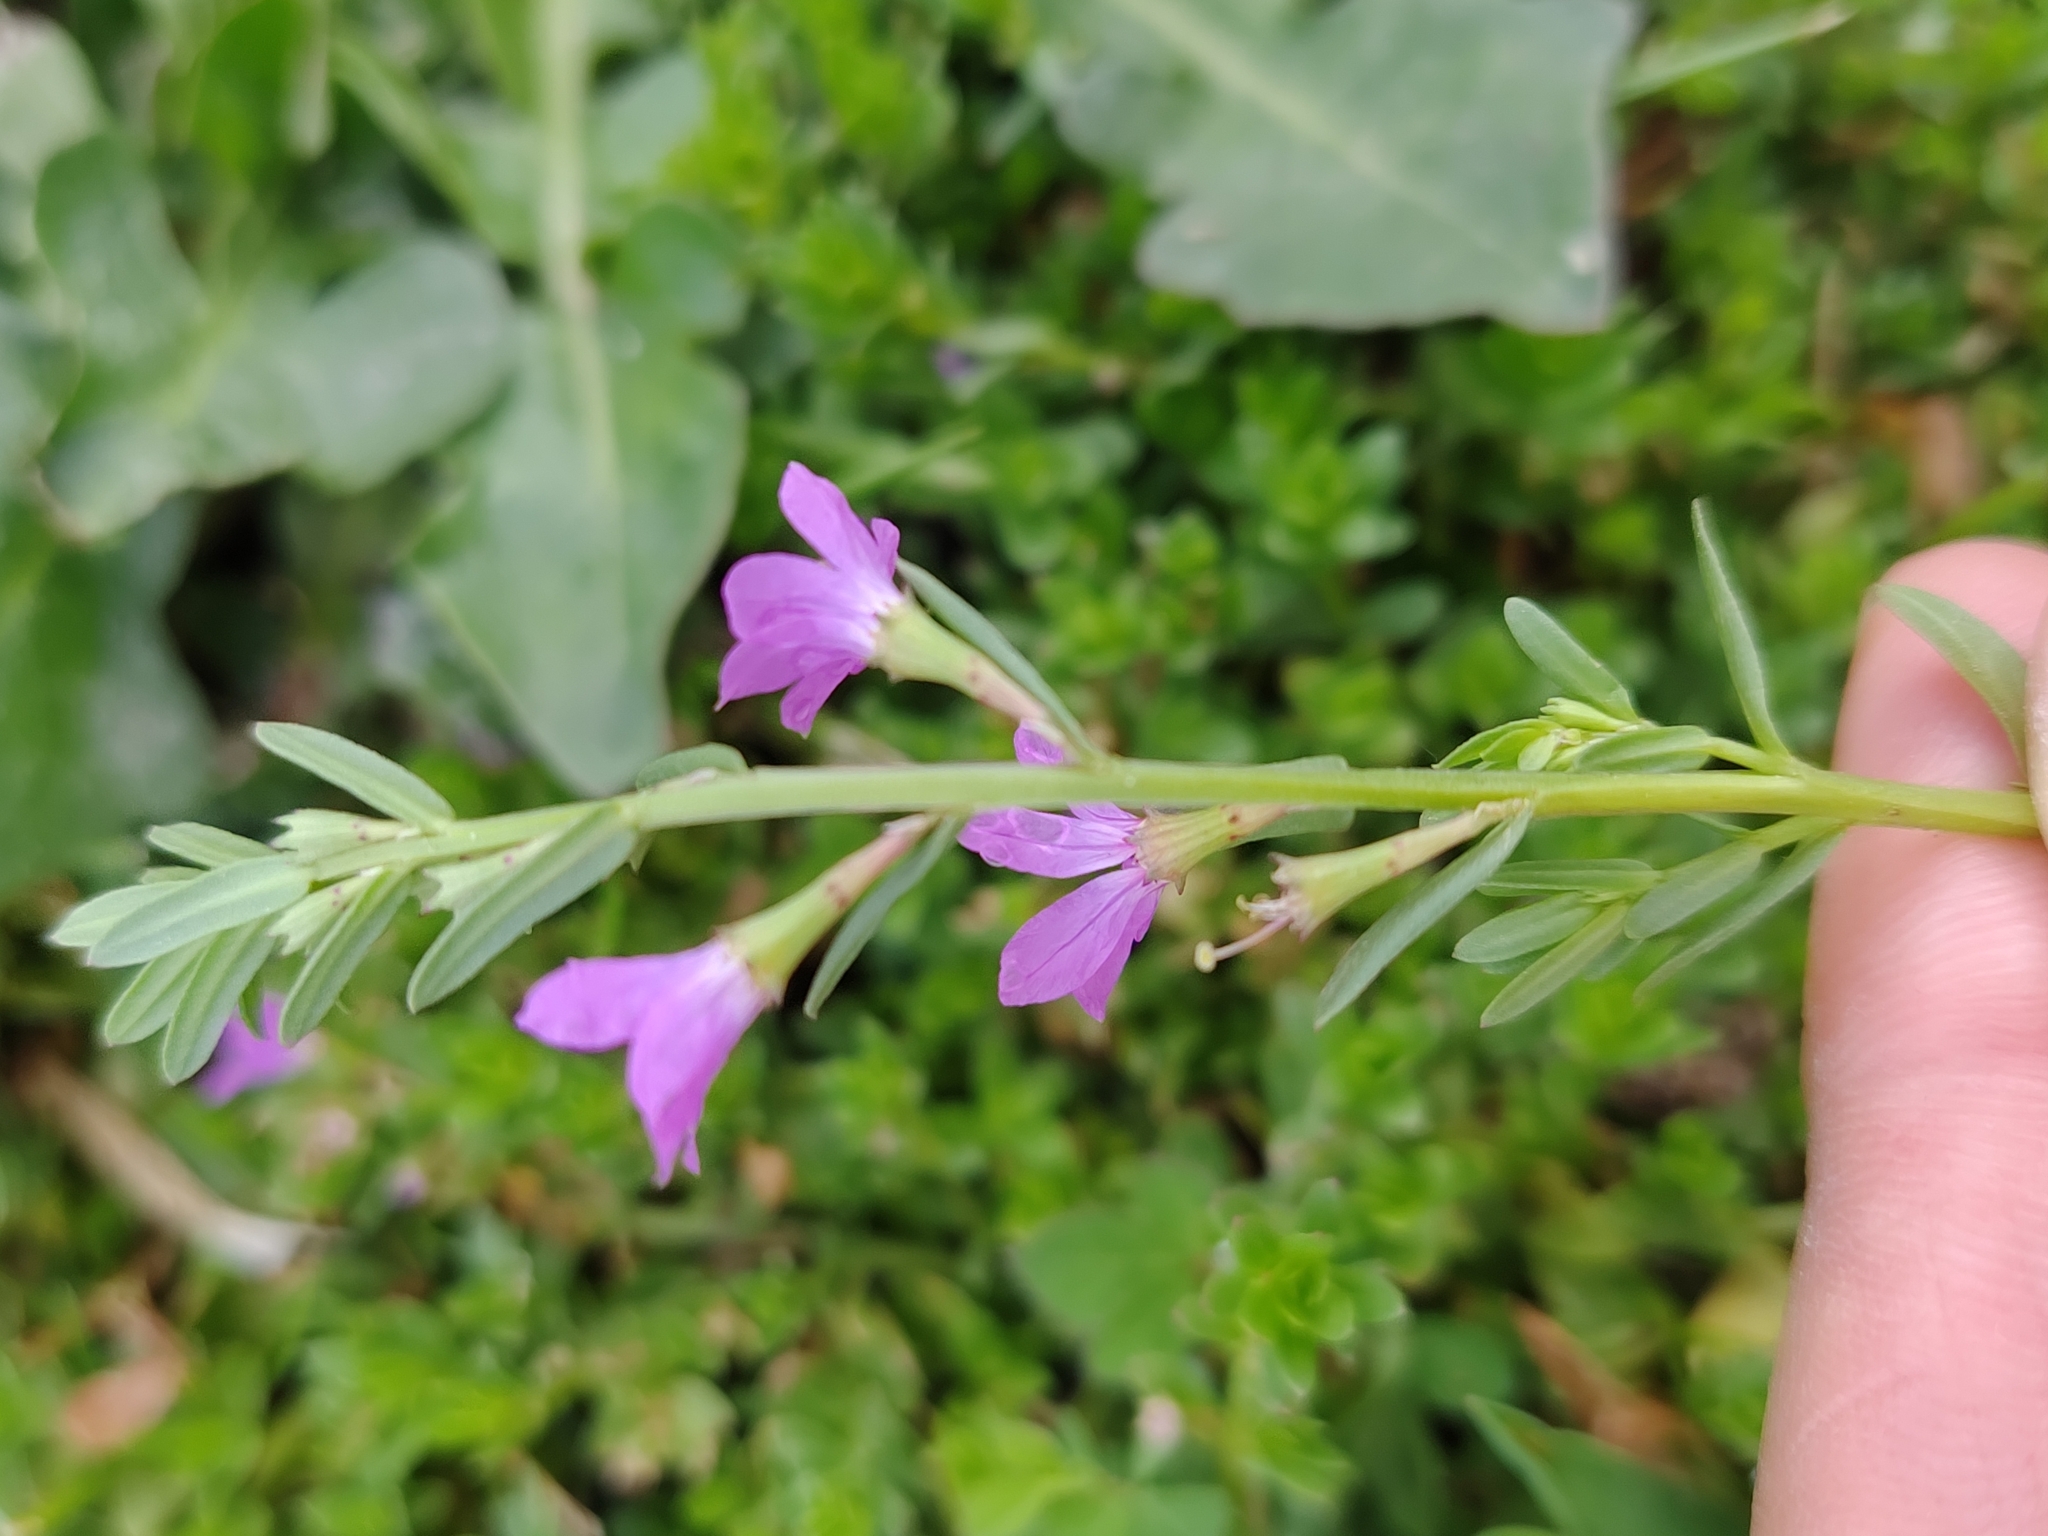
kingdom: Plantae
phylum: Tracheophyta
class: Magnoliopsida
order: Myrtales
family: Lythraceae
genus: Lythrum
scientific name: Lythrum junceum
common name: False grass-poly
